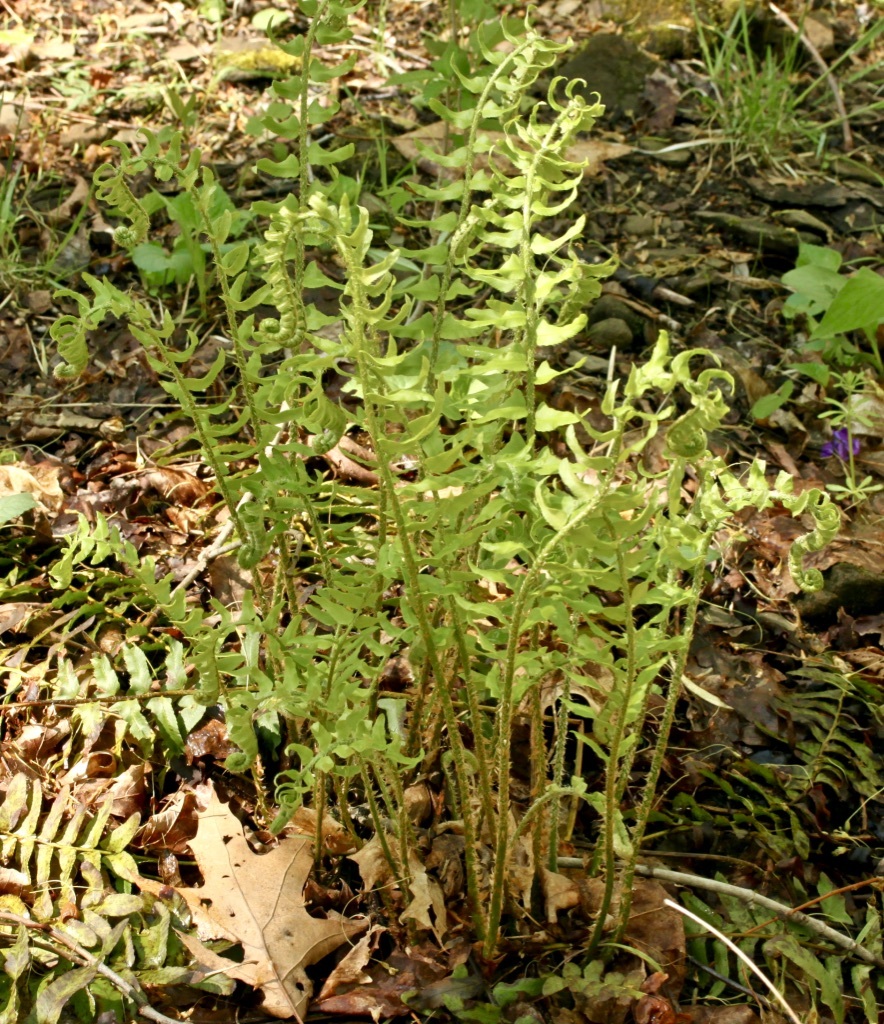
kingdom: Plantae
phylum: Tracheophyta
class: Polypodiopsida
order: Polypodiales
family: Dryopteridaceae
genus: Polystichum
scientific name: Polystichum acrostichoides
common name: Christmas fern
